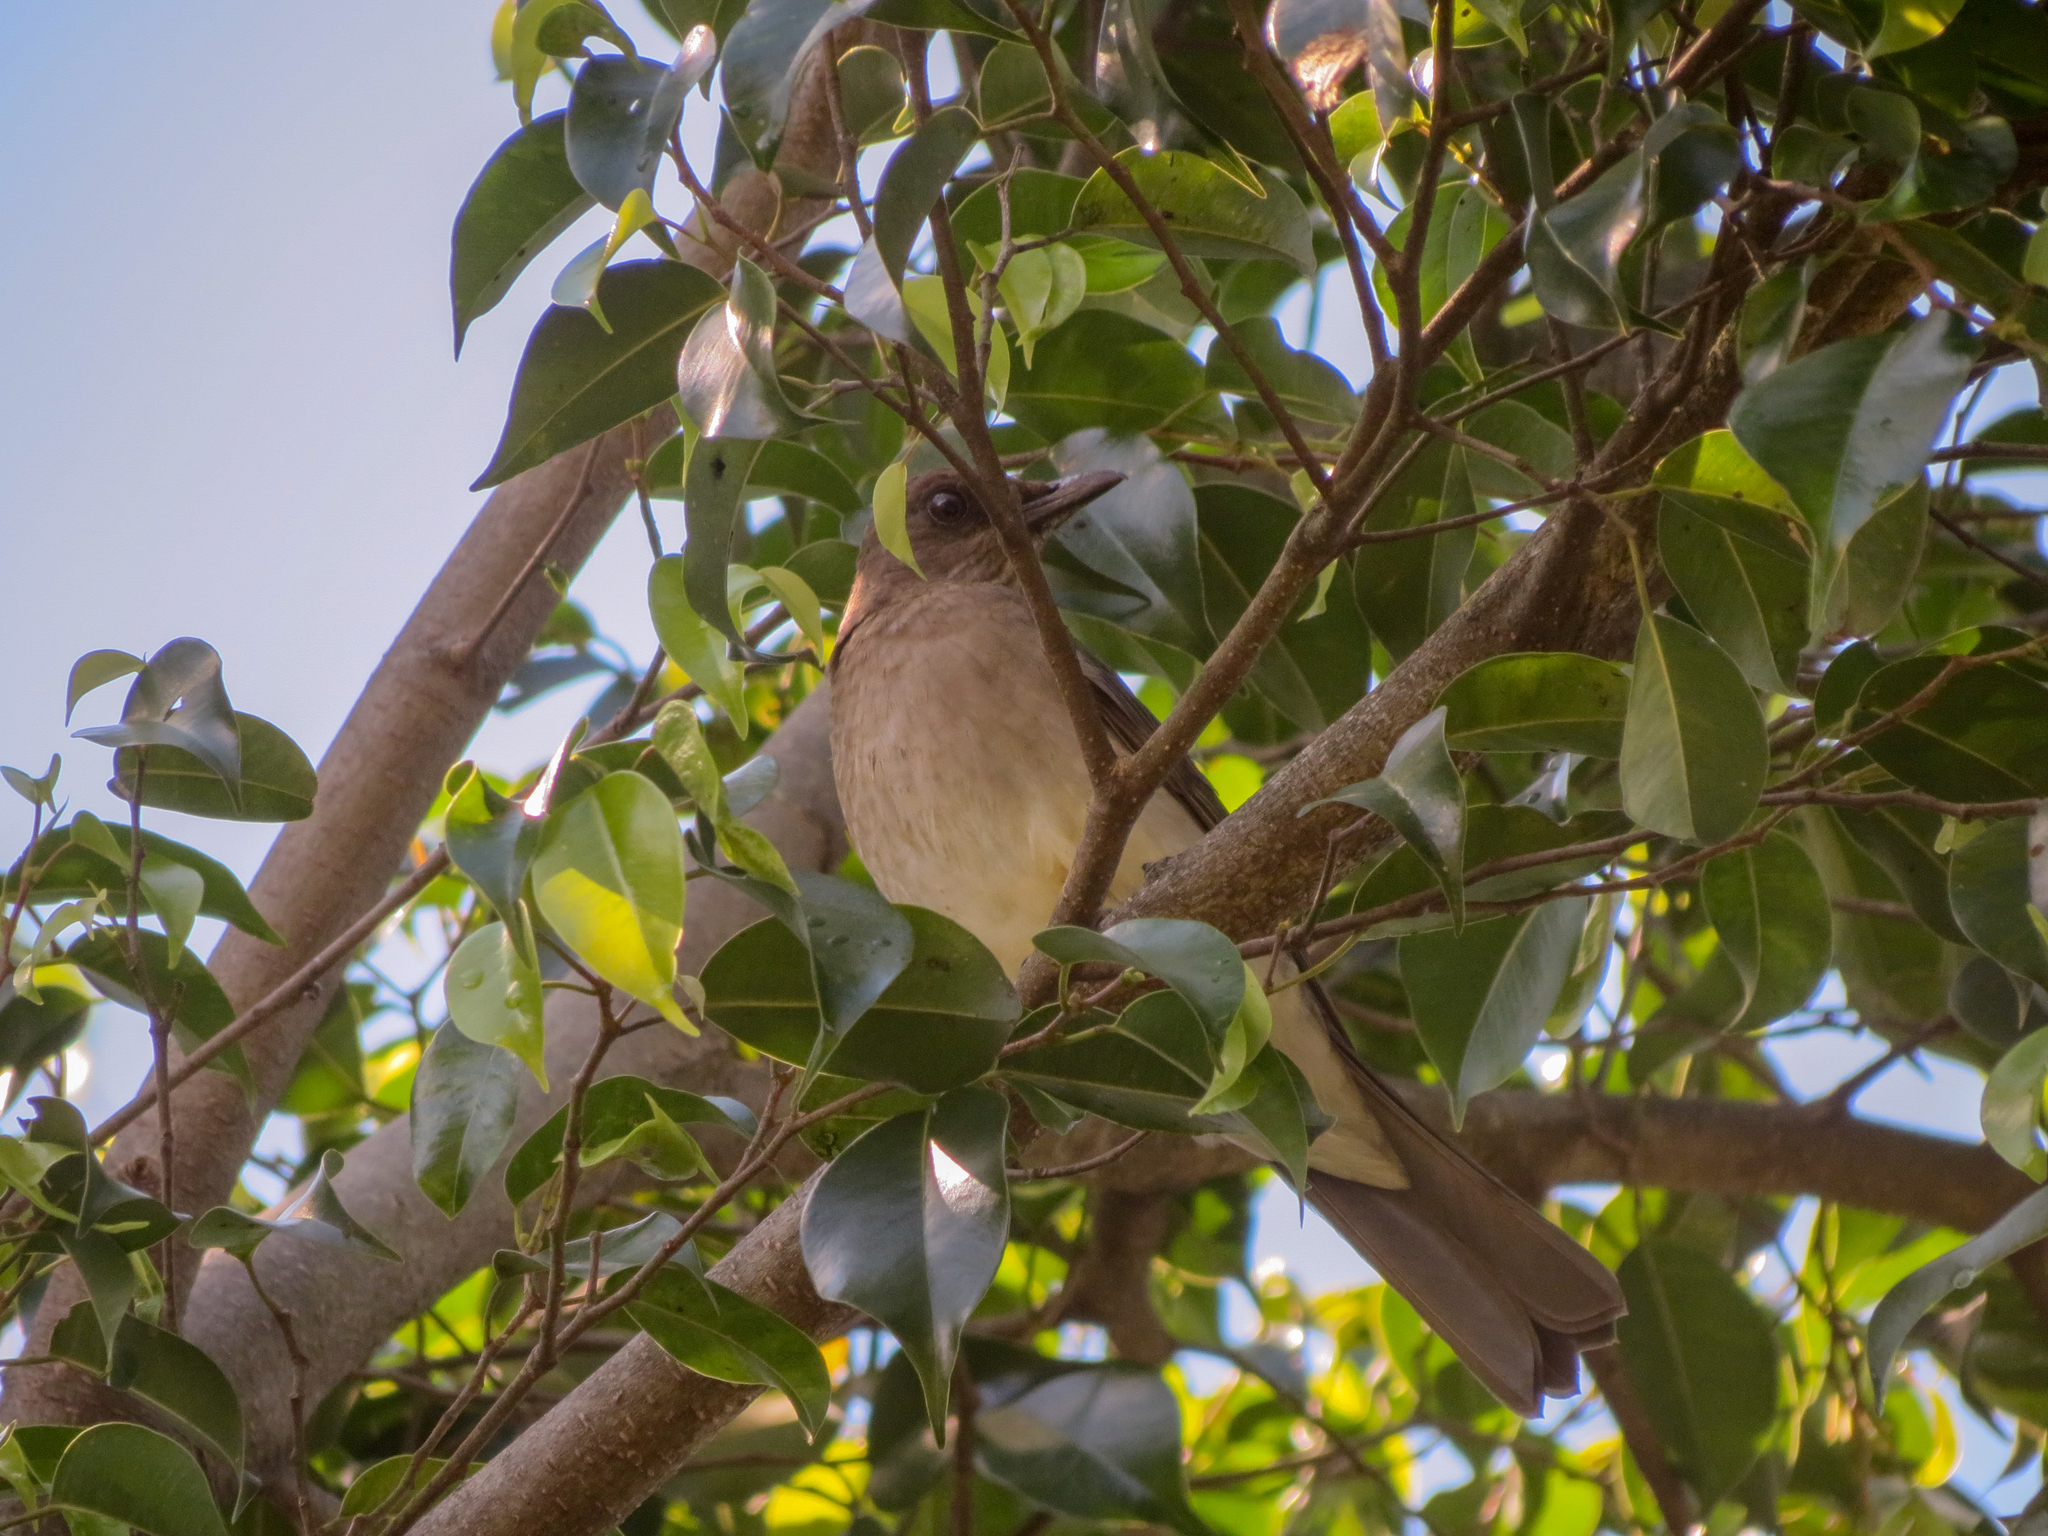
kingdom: Animalia
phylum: Chordata
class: Aves
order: Passeriformes
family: Turdidae
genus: Turdus
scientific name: Turdus ignobilis
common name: Black-billed thrush
